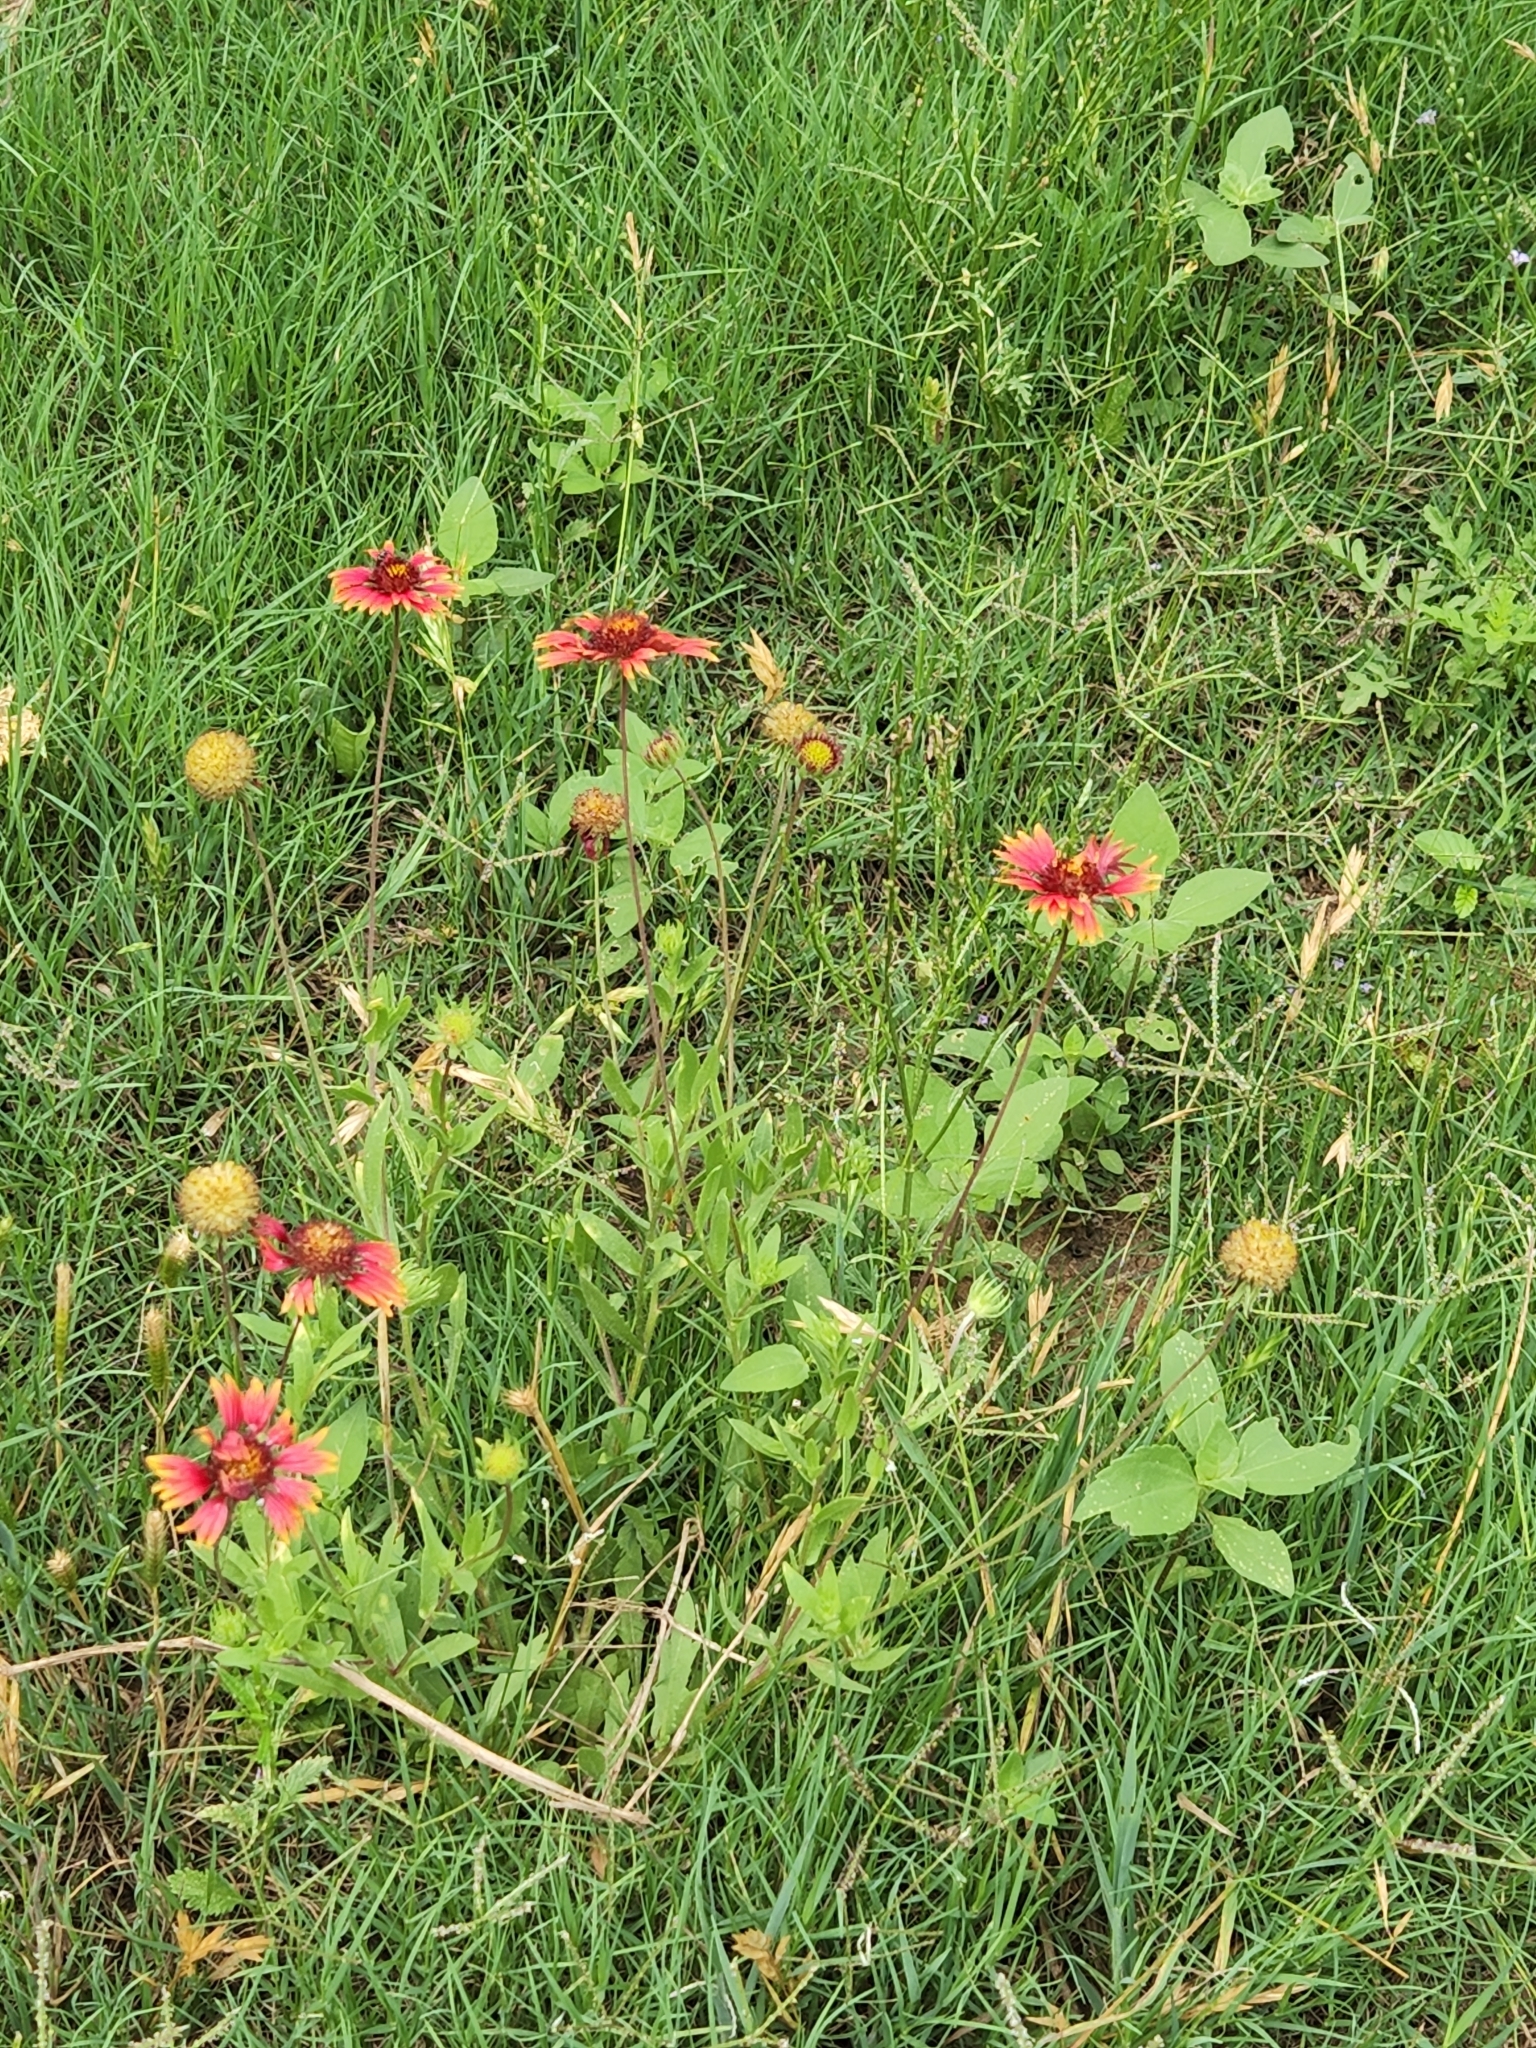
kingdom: Plantae
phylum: Tracheophyta
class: Magnoliopsida
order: Asterales
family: Asteraceae
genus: Gaillardia
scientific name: Gaillardia pulchella
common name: Firewheel
